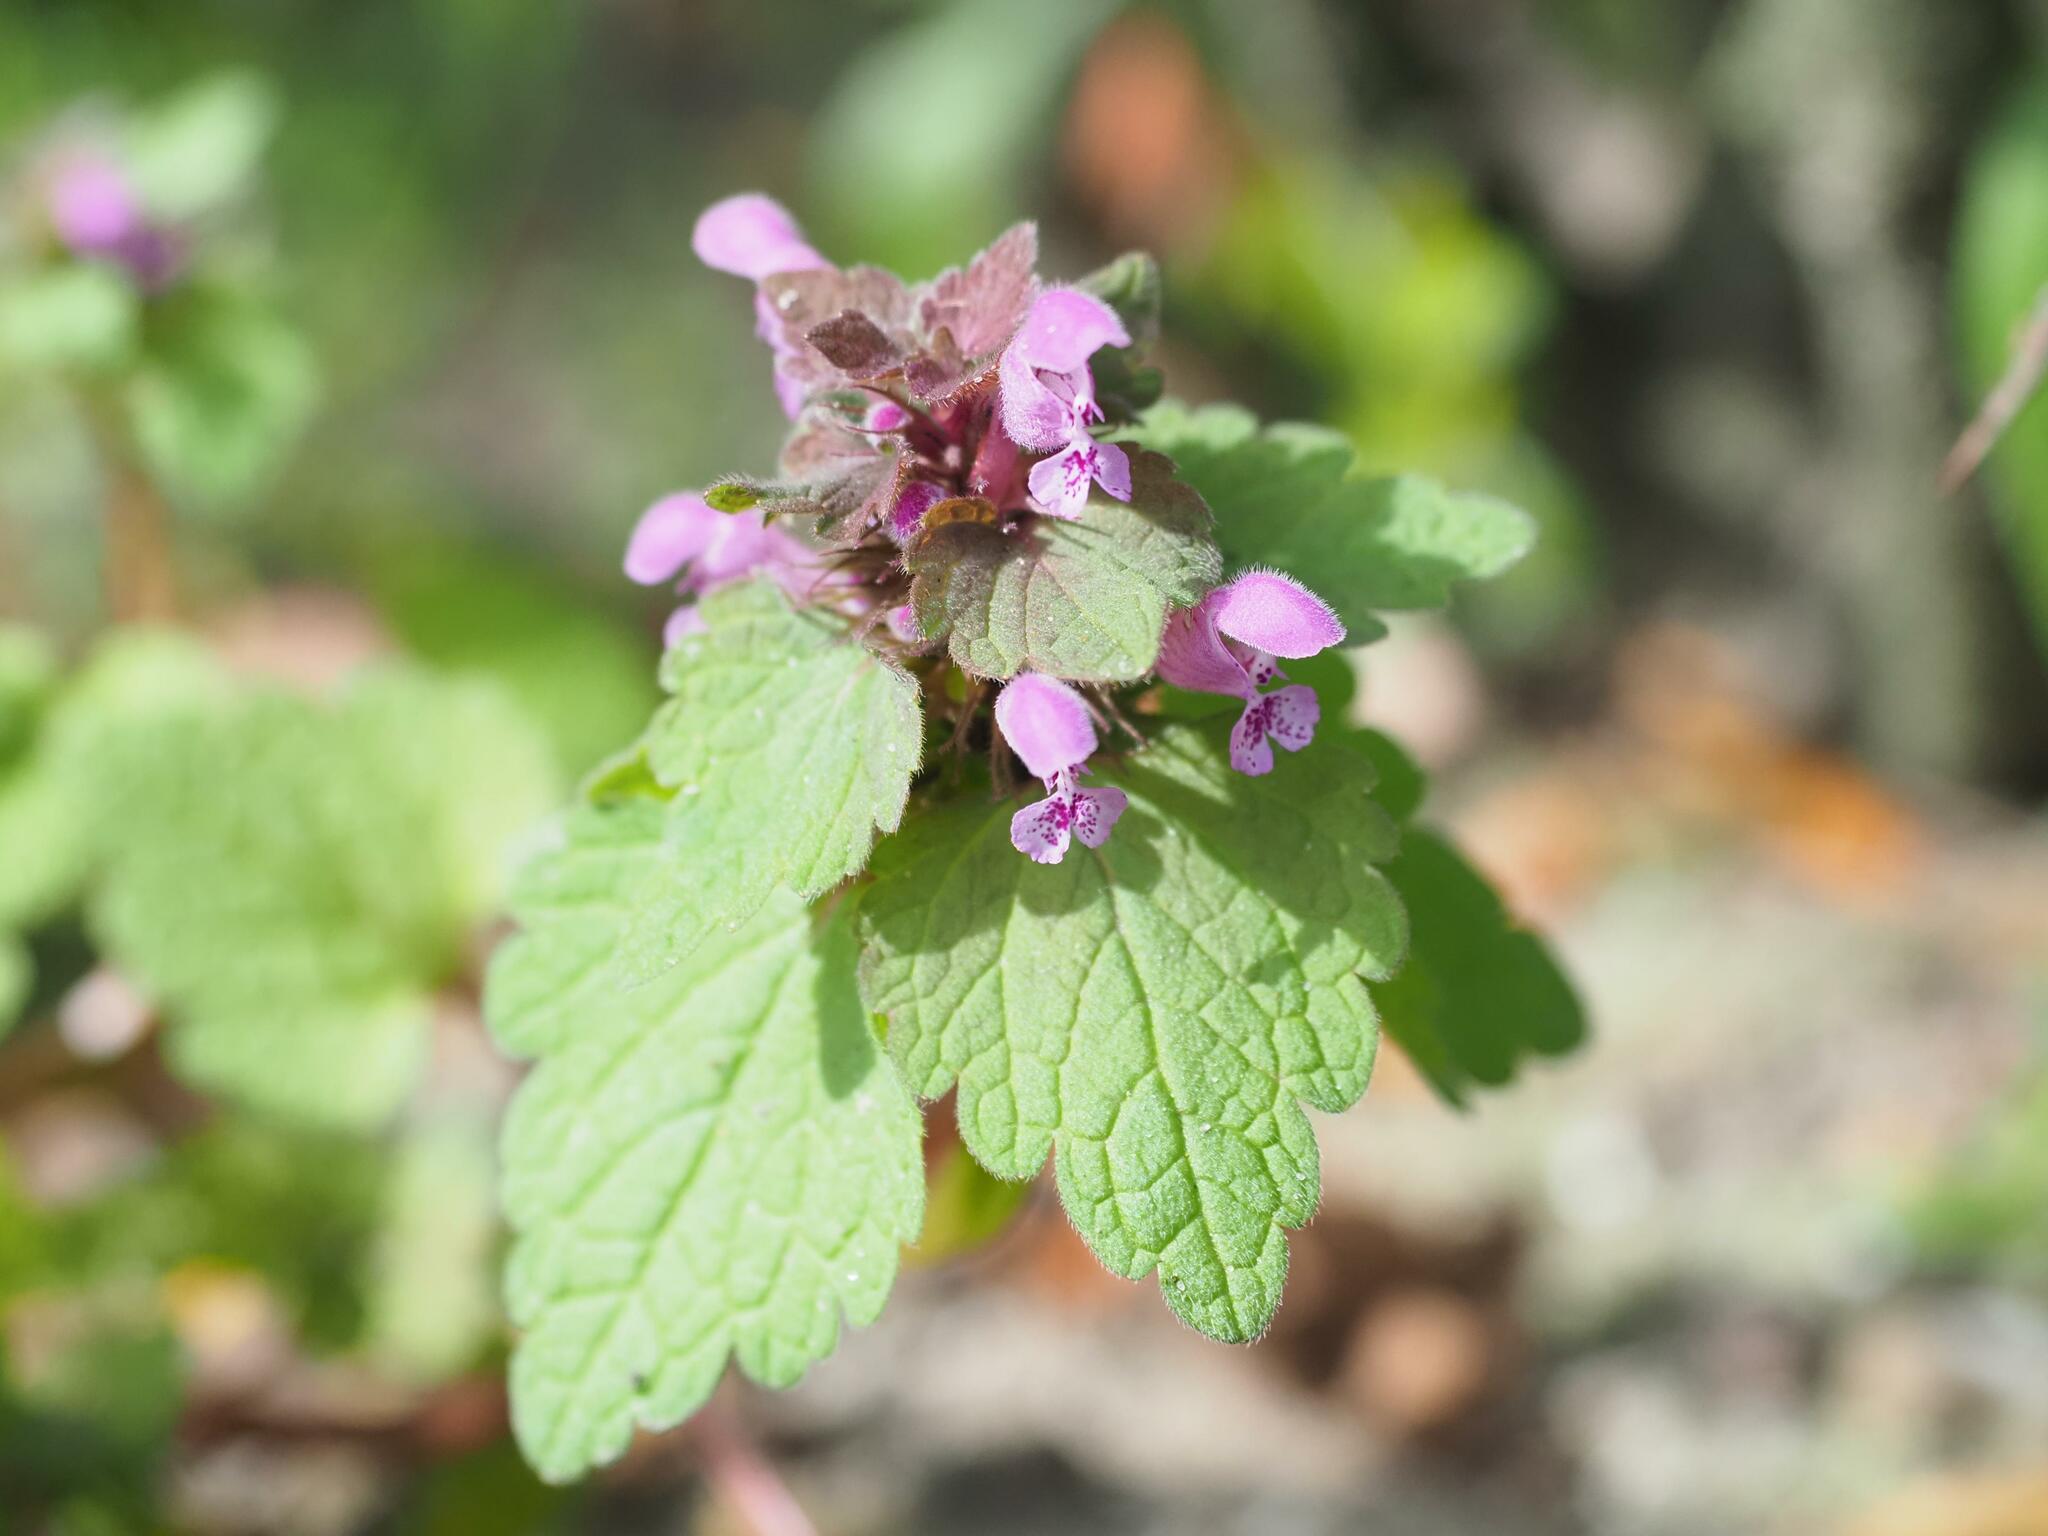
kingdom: Plantae
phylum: Tracheophyta
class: Magnoliopsida
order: Lamiales
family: Lamiaceae
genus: Lamium
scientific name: Lamium purpureum
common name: Red dead-nettle
